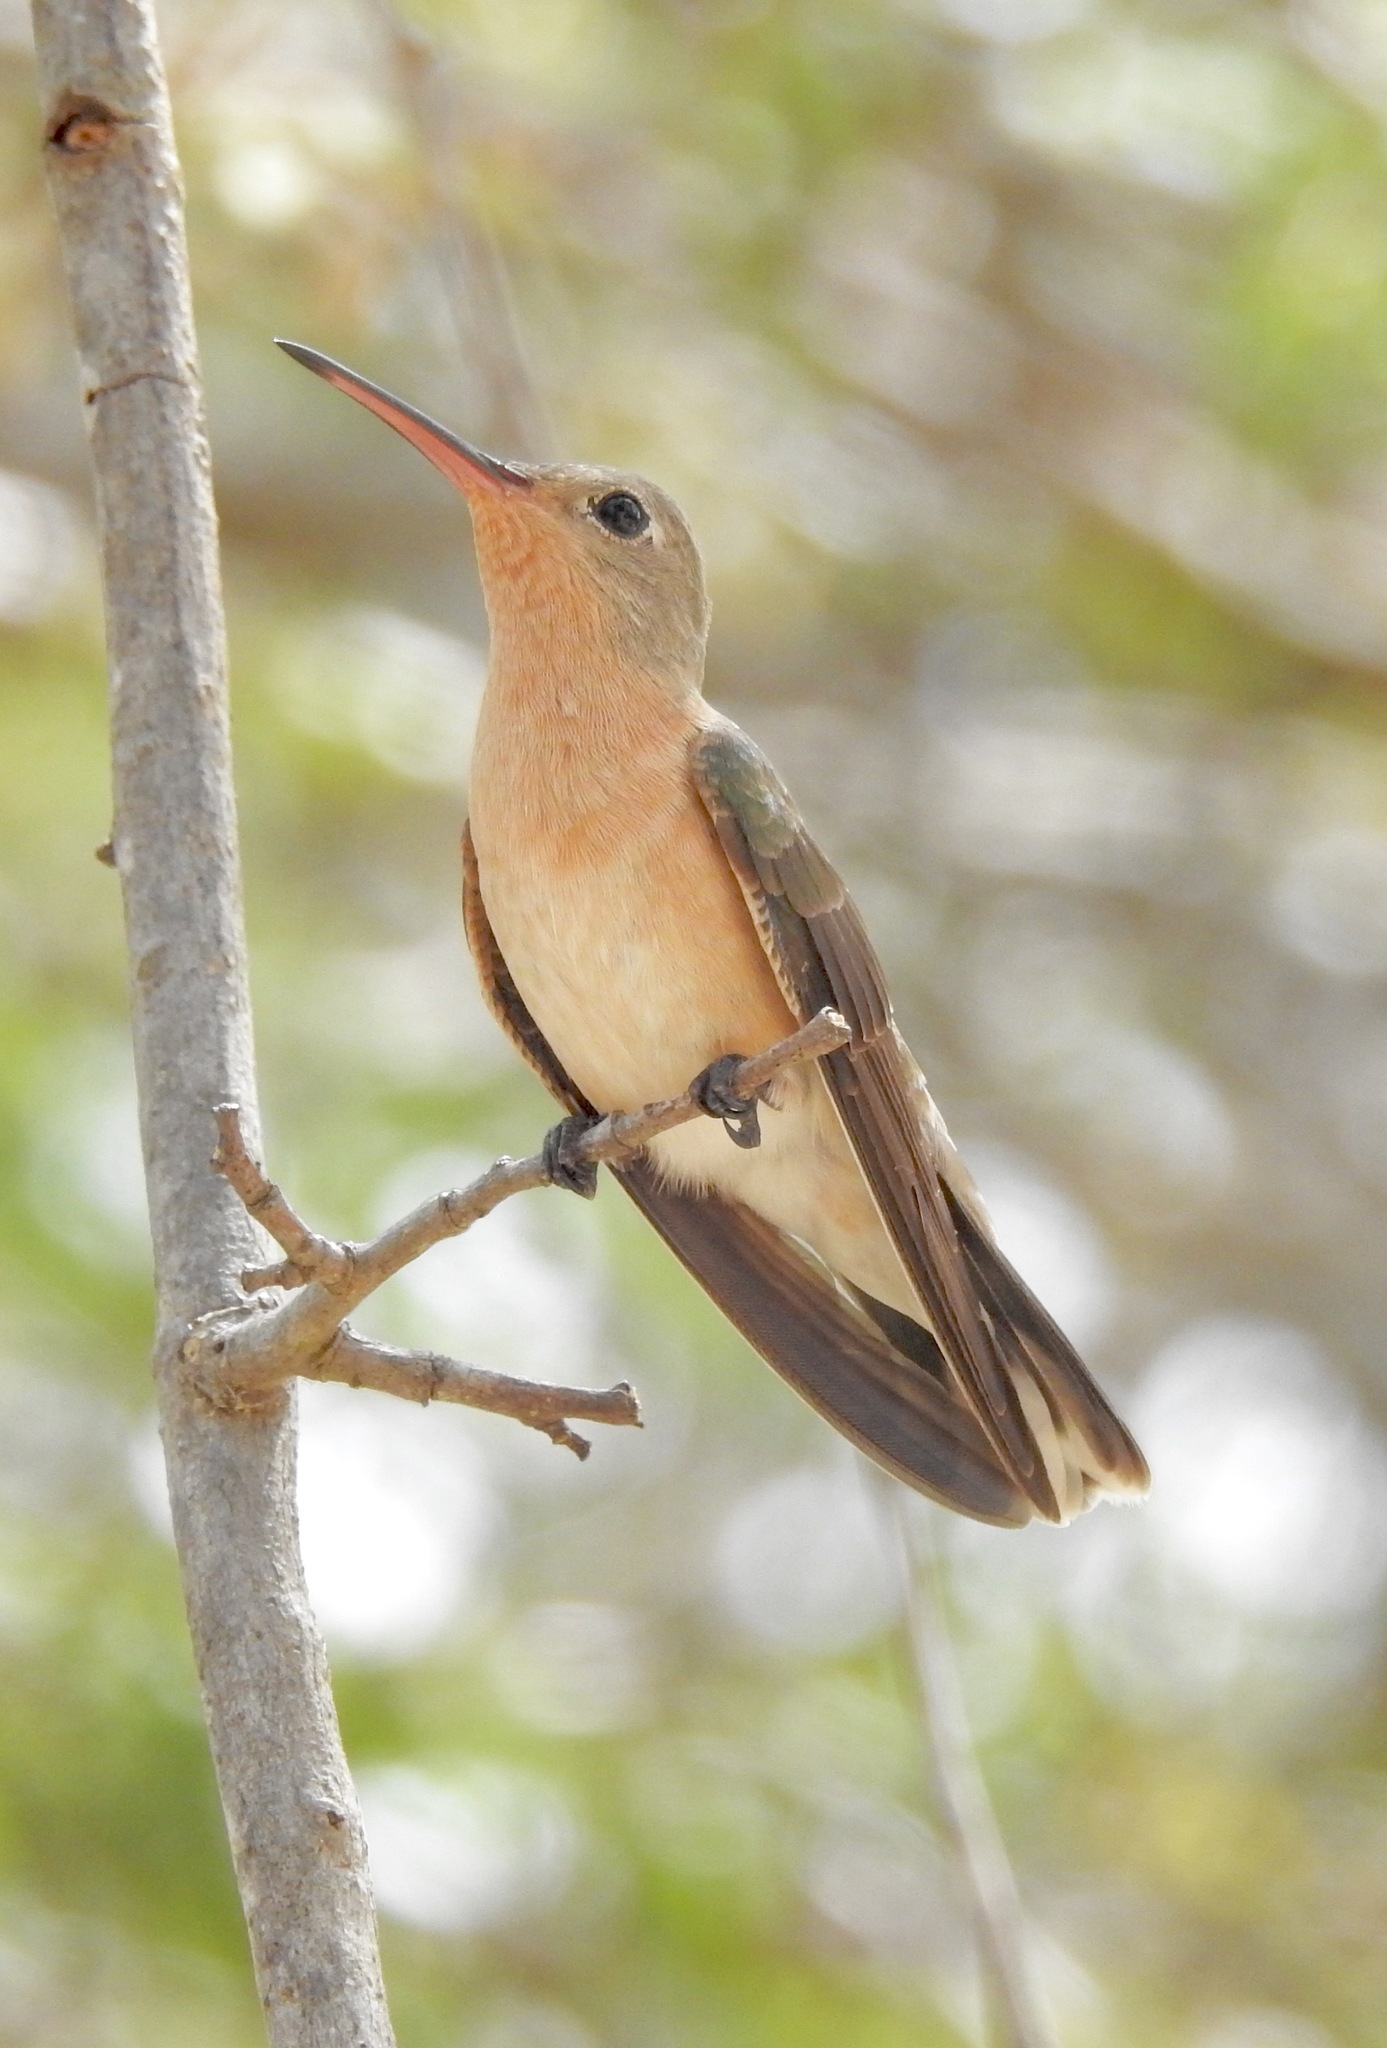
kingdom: Animalia
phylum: Chordata
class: Aves
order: Apodiformes
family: Trochilidae
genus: Leucippus
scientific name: Leucippus fallax
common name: Buffy hummingbird
